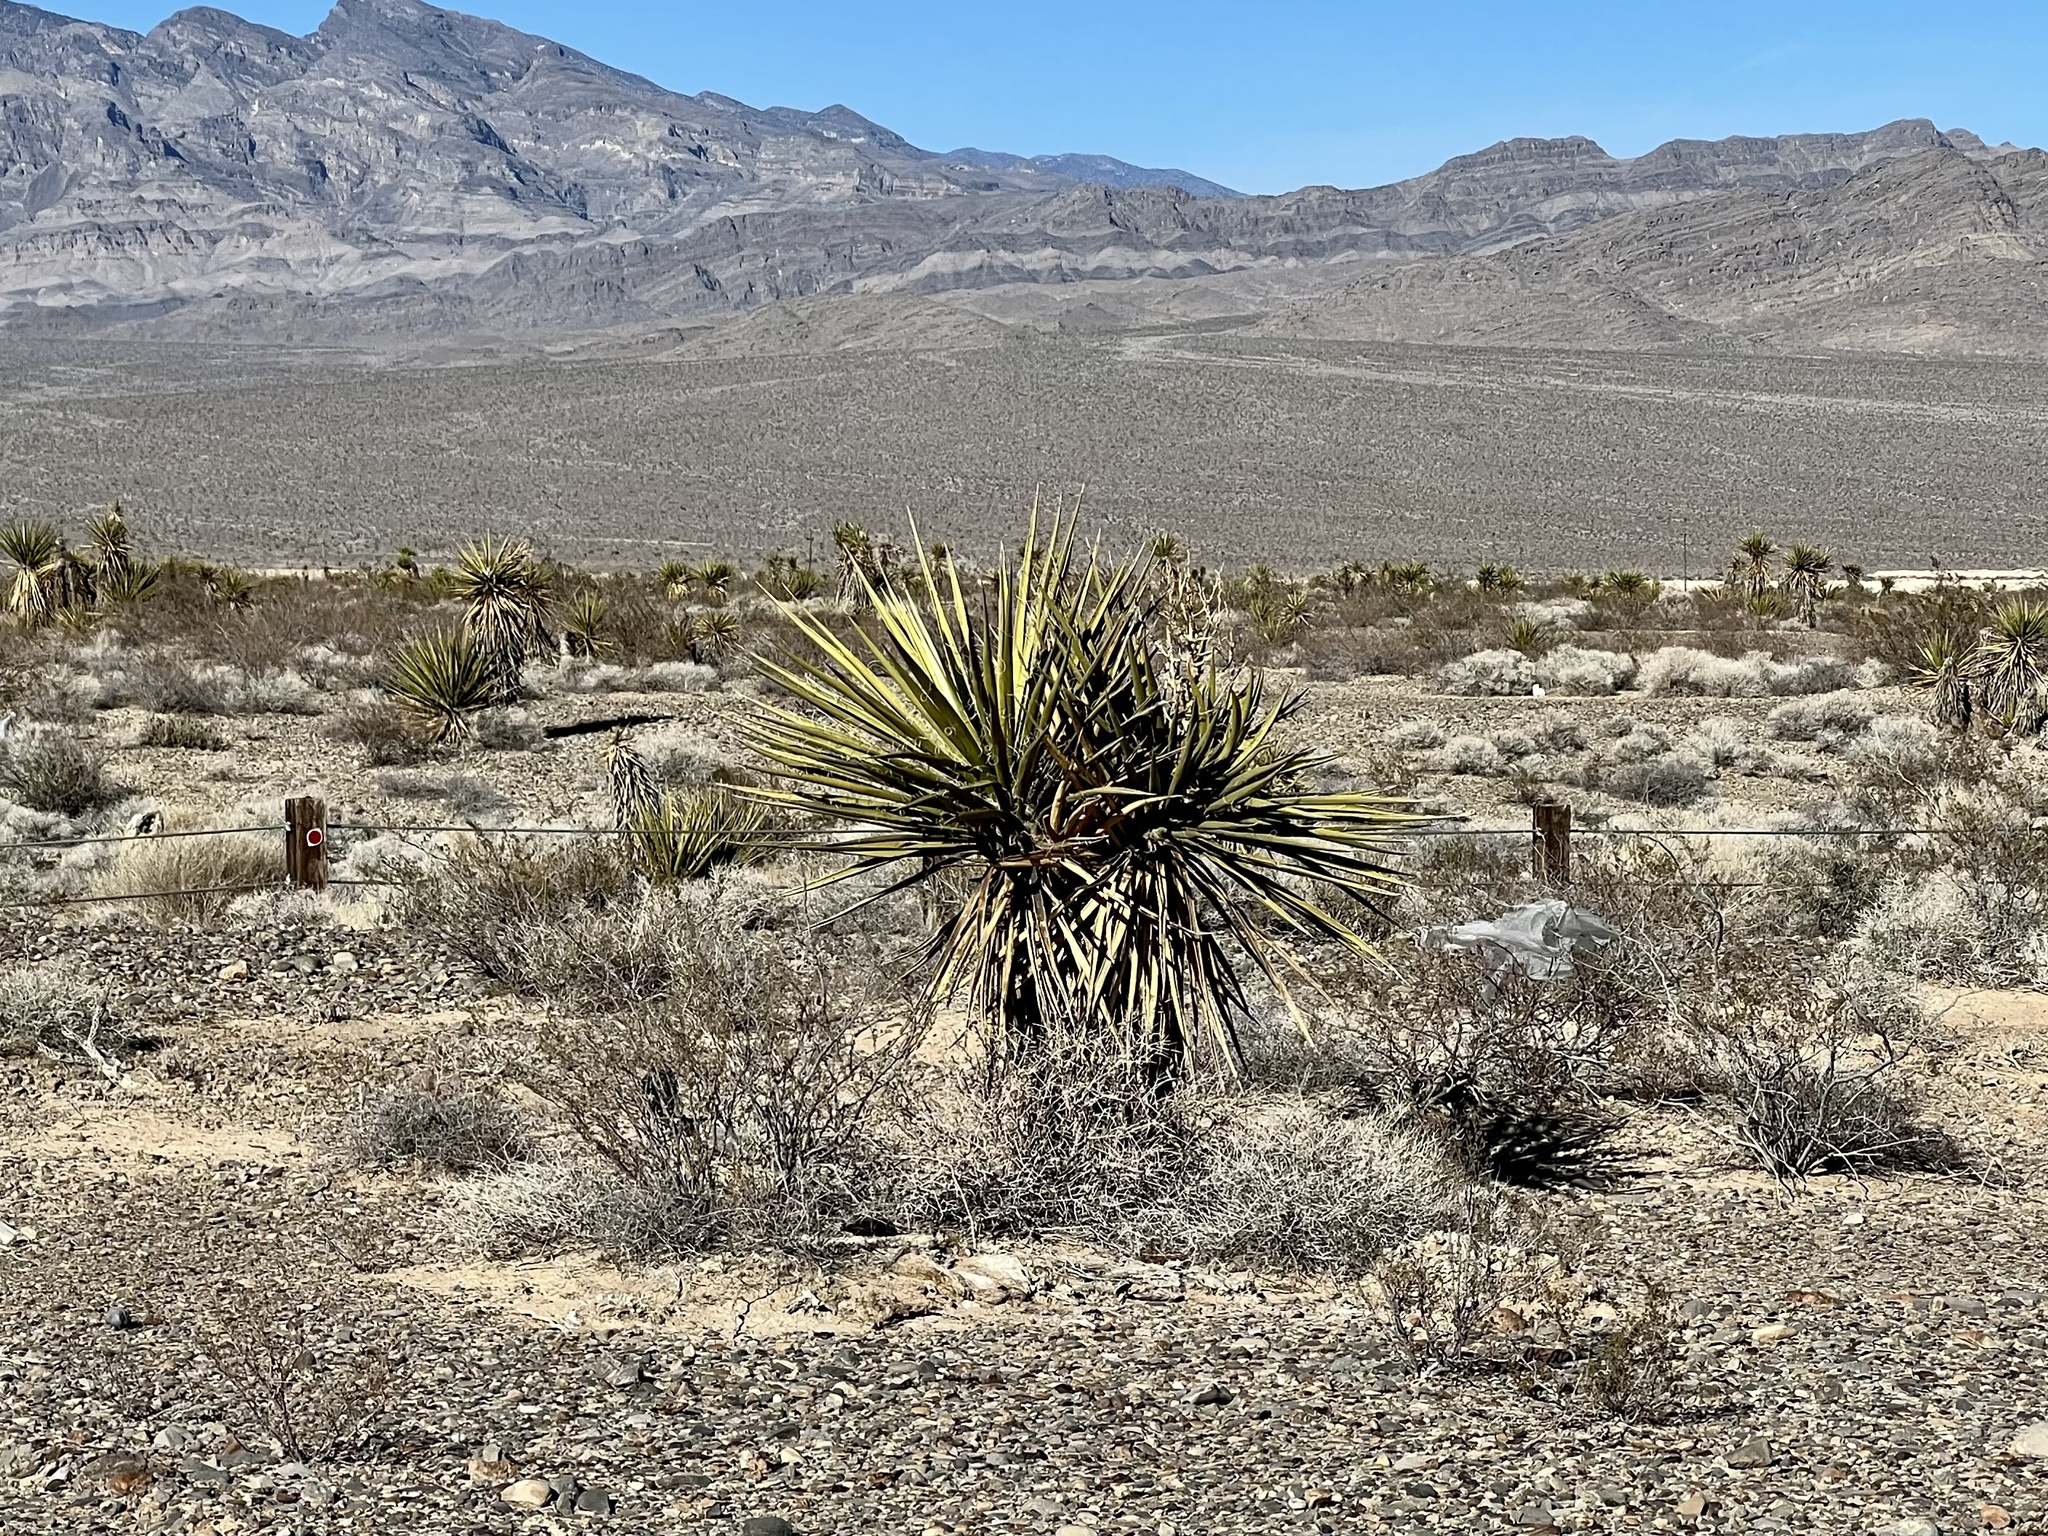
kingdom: Plantae
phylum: Tracheophyta
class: Liliopsida
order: Asparagales
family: Asparagaceae
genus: Yucca
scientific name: Yucca schidigera
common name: Mojave yucca
